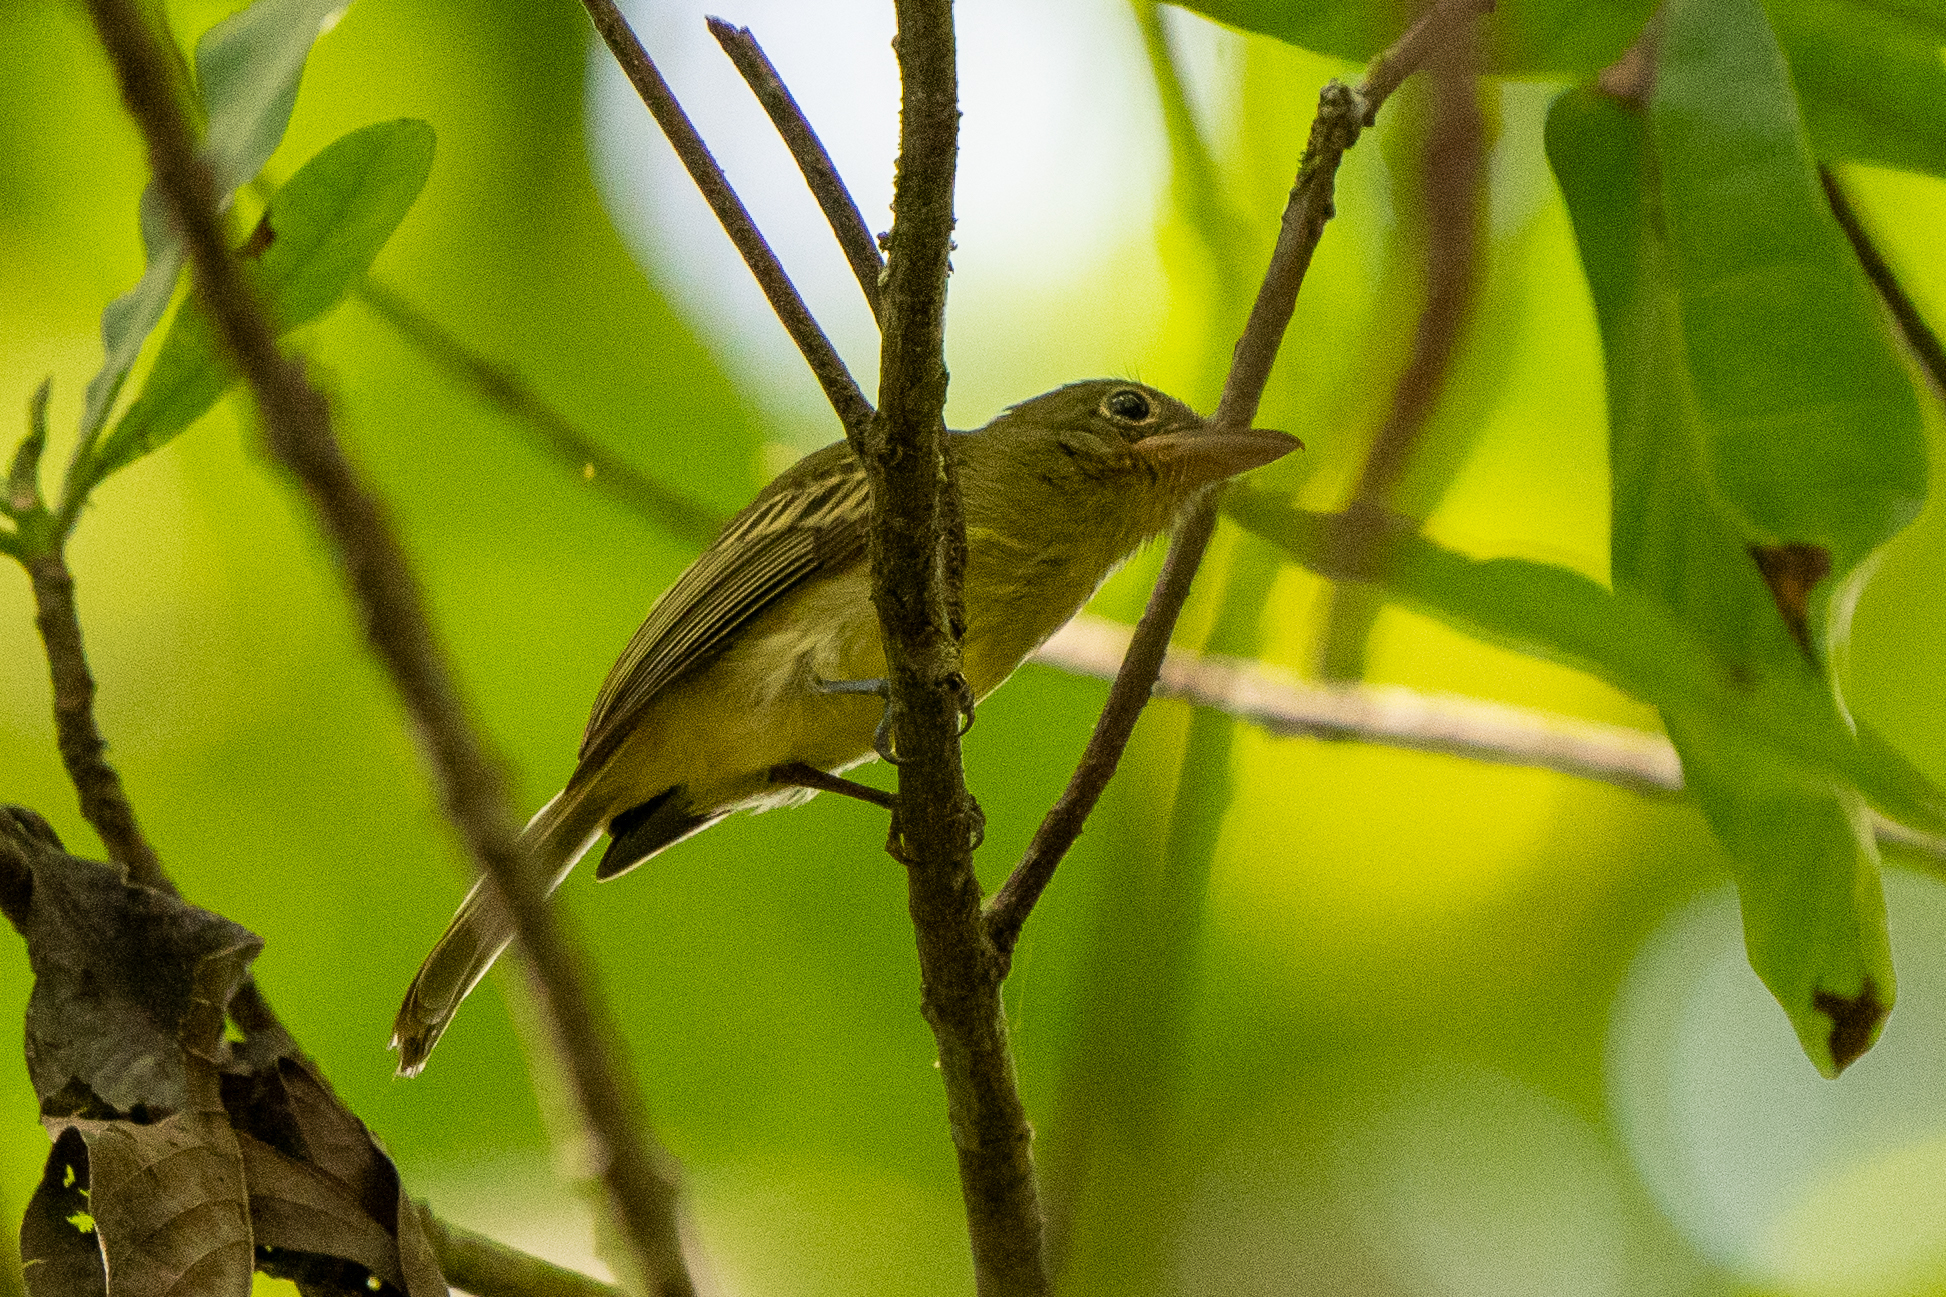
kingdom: Animalia
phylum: Chordata
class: Aves
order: Passeriformes
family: Tyrannidae
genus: Rhynchocyclus
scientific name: Rhynchocyclus olivaceus
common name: Olivaceous flatbill
